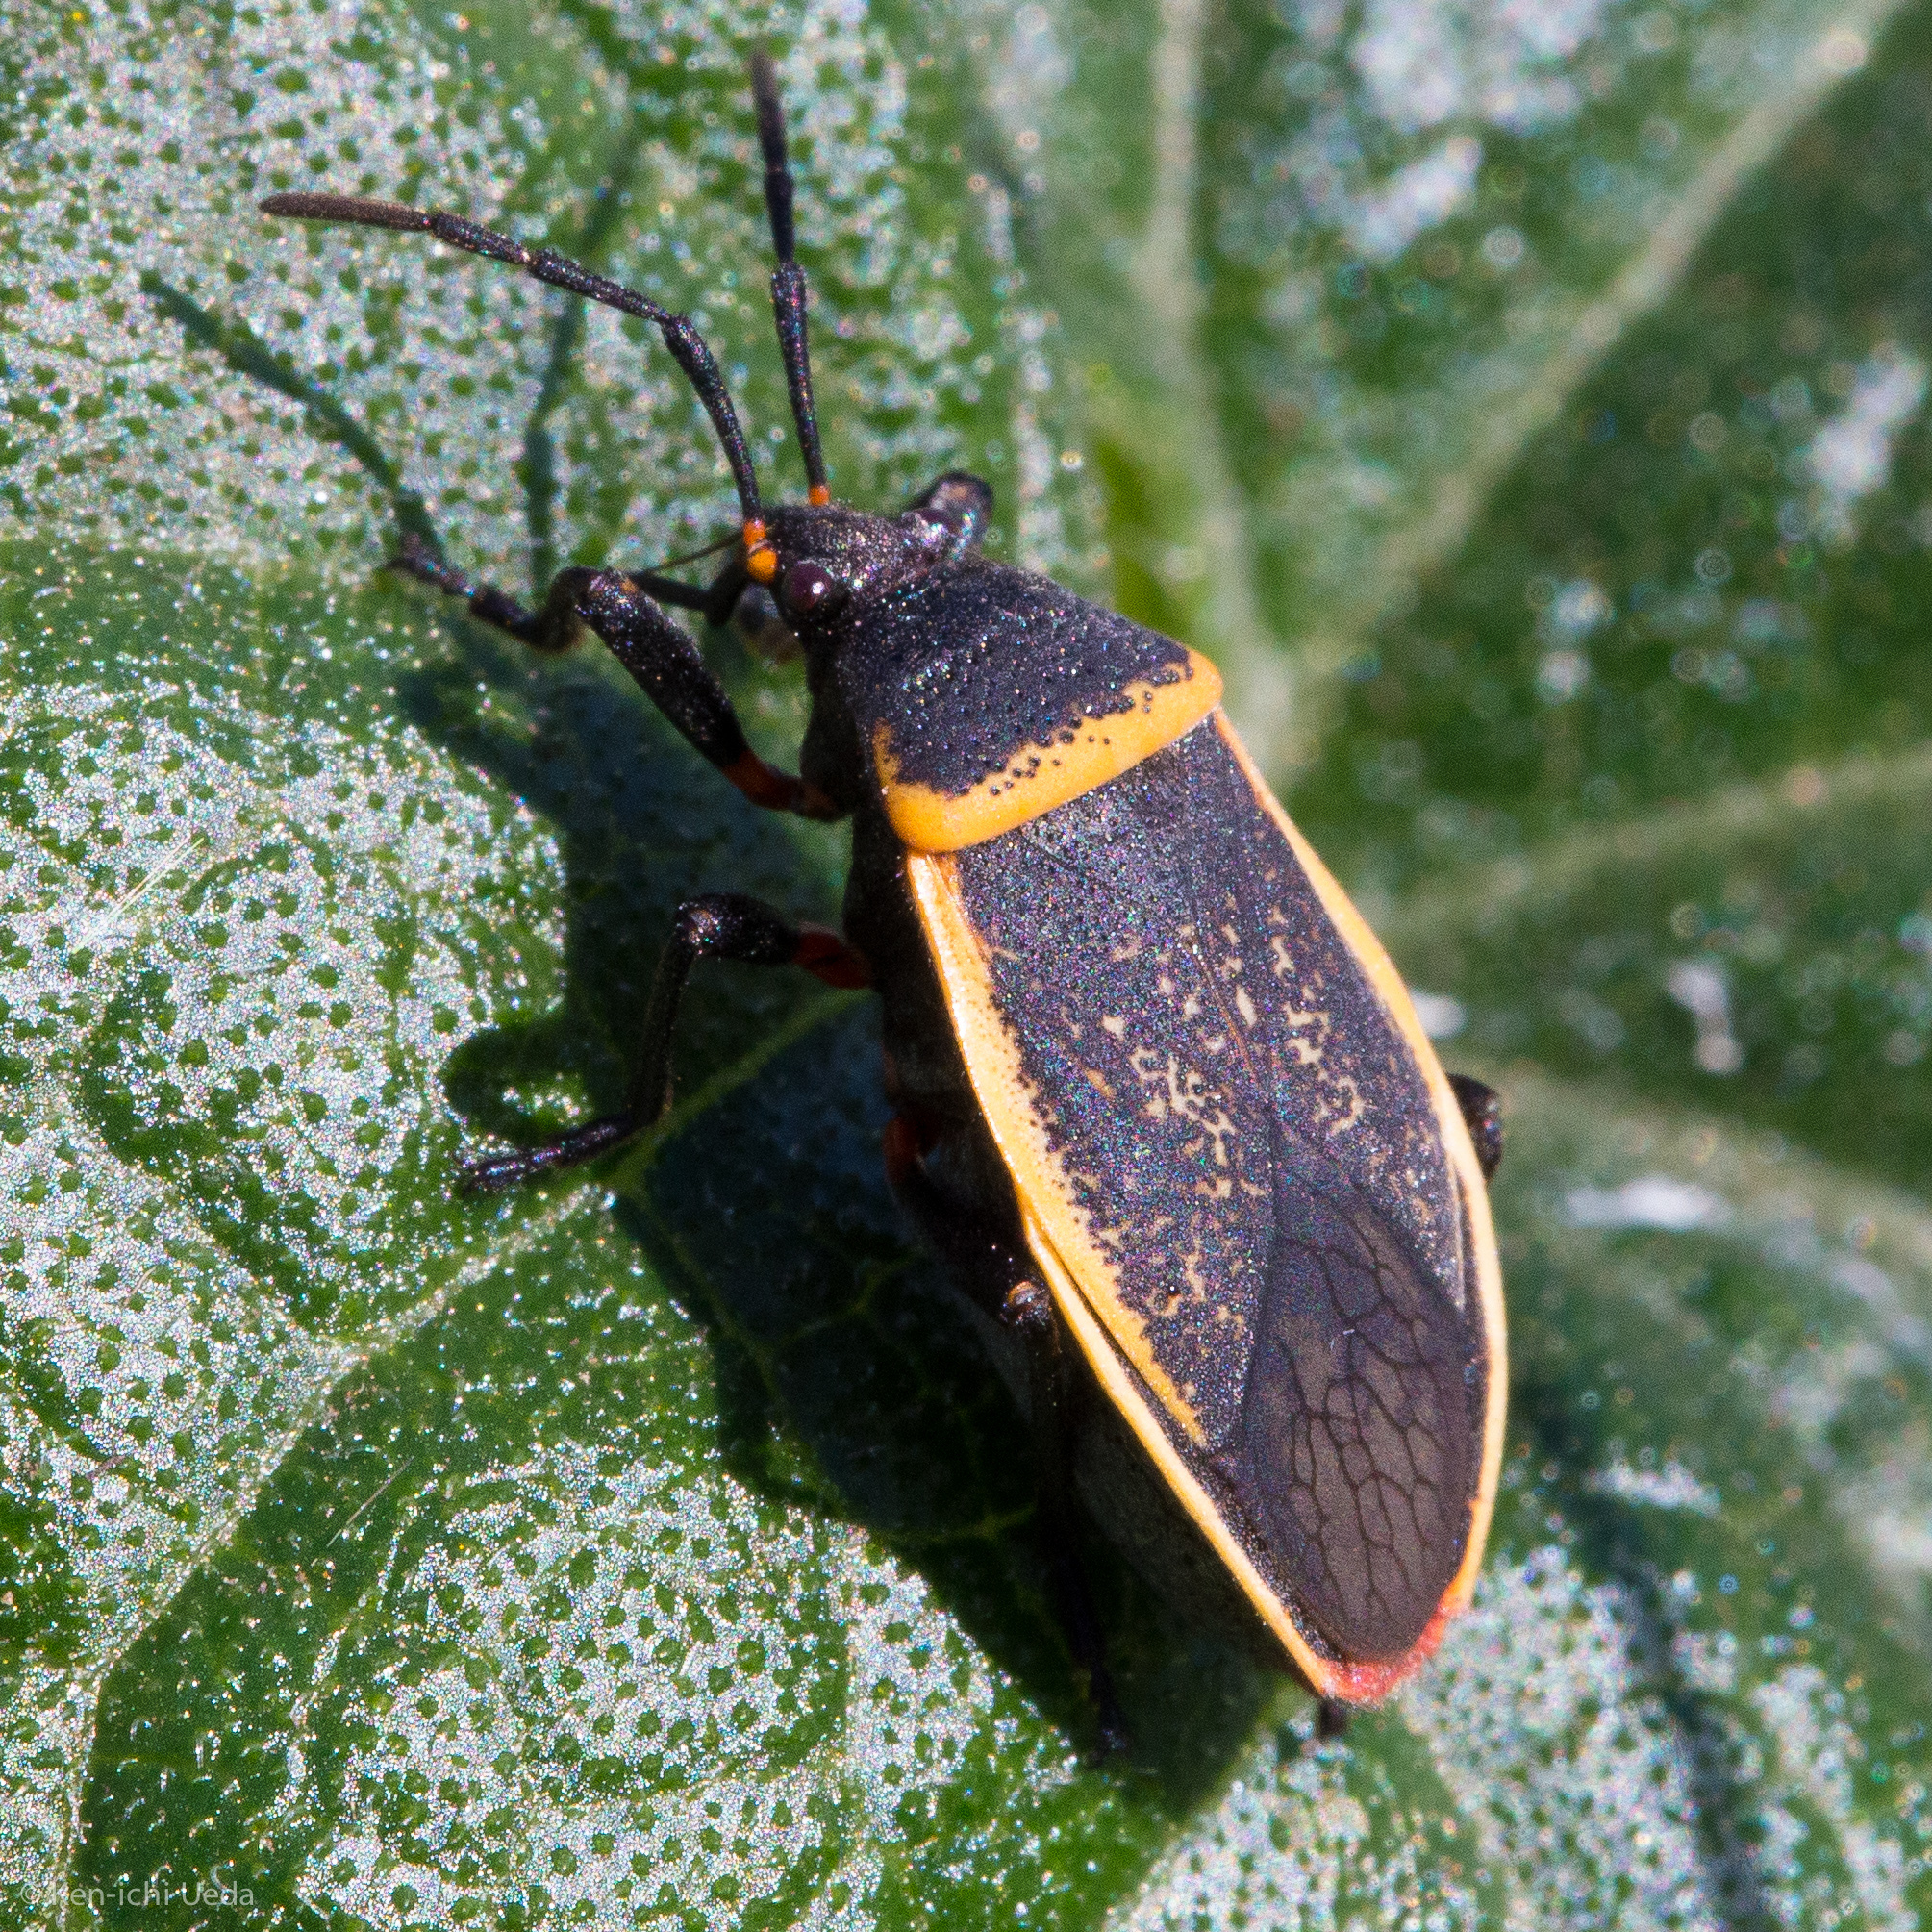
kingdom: Animalia
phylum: Arthropoda
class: Insecta
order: Hemiptera
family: Largidae
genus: Largus
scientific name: Largus californicus
